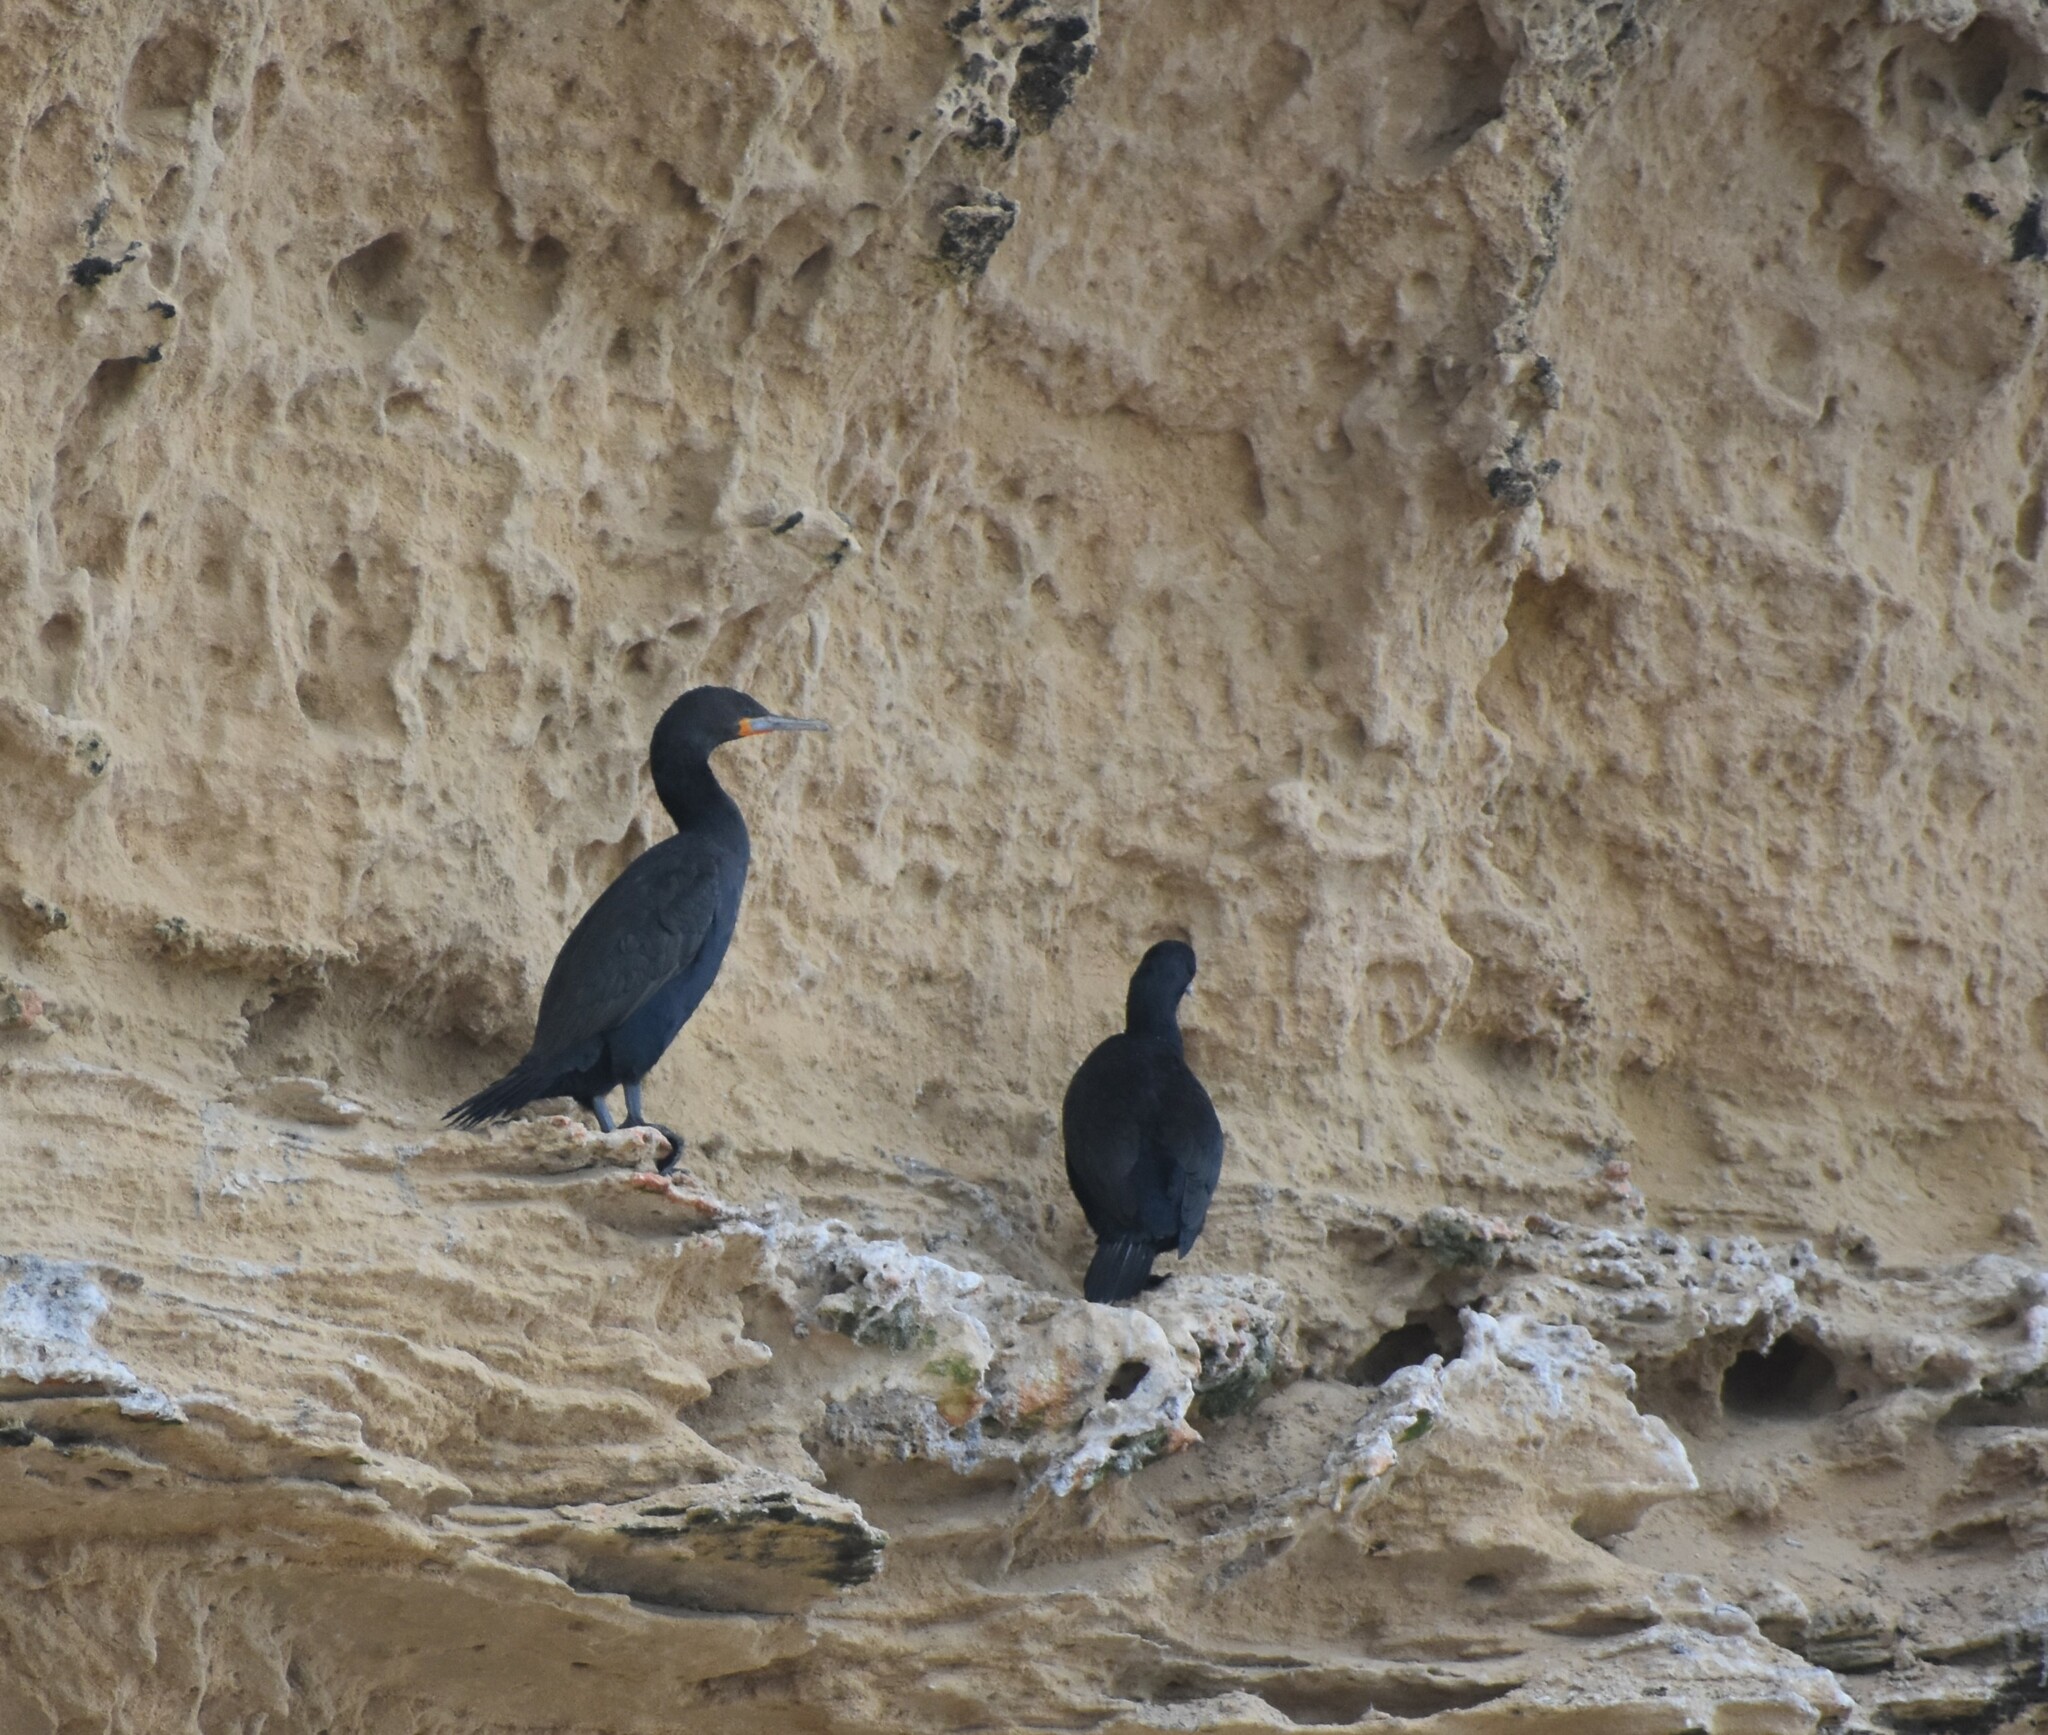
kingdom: Animalia
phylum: Chordata
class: Aves
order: Suliformes
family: Phalacrocoracidae
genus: Phalacrocorax
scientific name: Phalacrocorax capensis
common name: Cape cormorant
